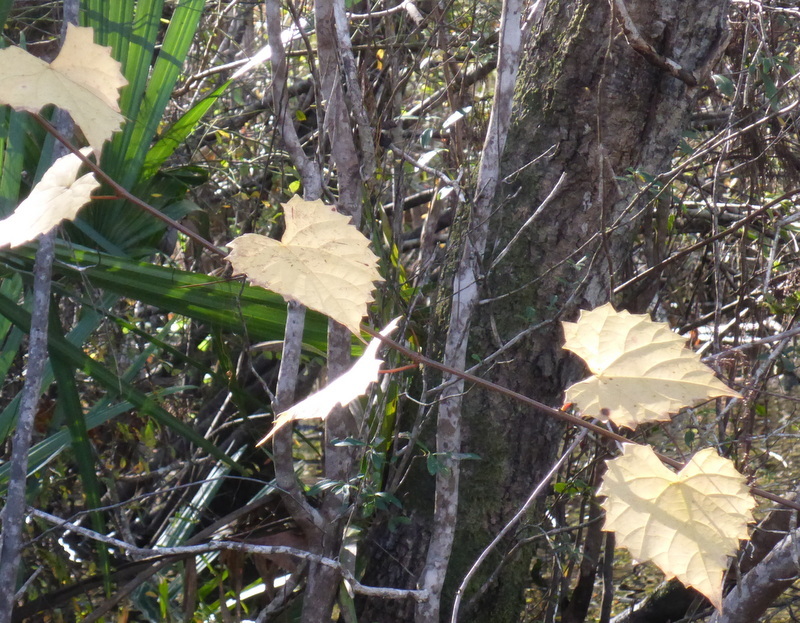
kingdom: Plantae
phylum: Tracheophyta
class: Magnoliopsida
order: Vitales
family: Vitaceae
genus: Vitis
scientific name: Vitis rotundifolia
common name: Muscadine grape
